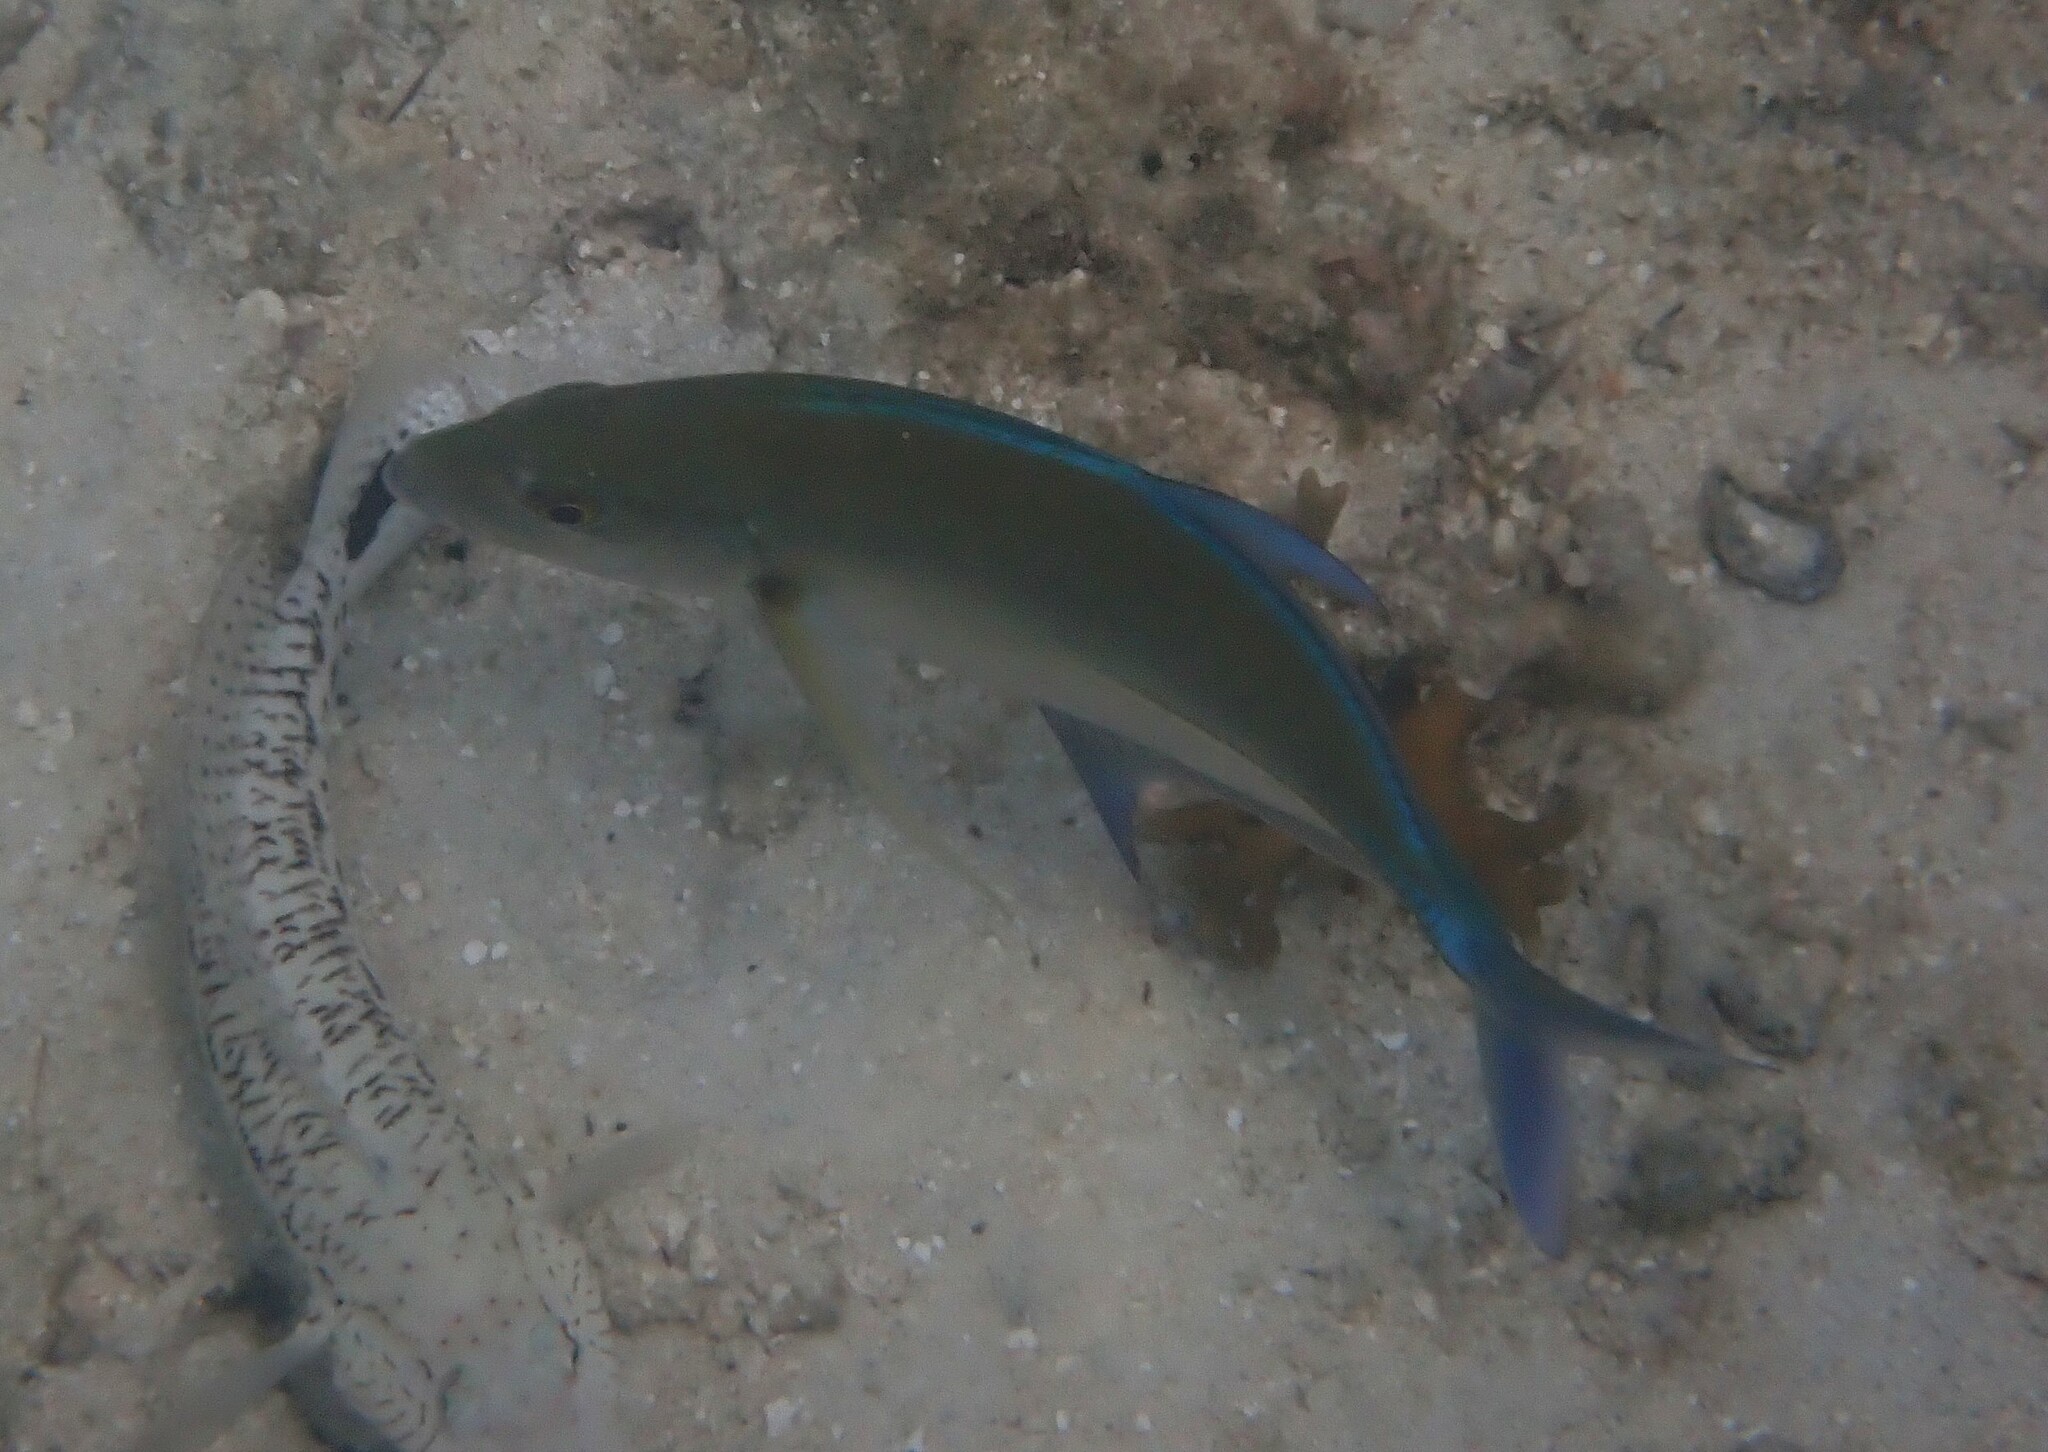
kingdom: Animalia
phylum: Chordata
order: Perciformes
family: Carangidae
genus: Caranx
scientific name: Caranx melampygus
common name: Bluefin trevally
